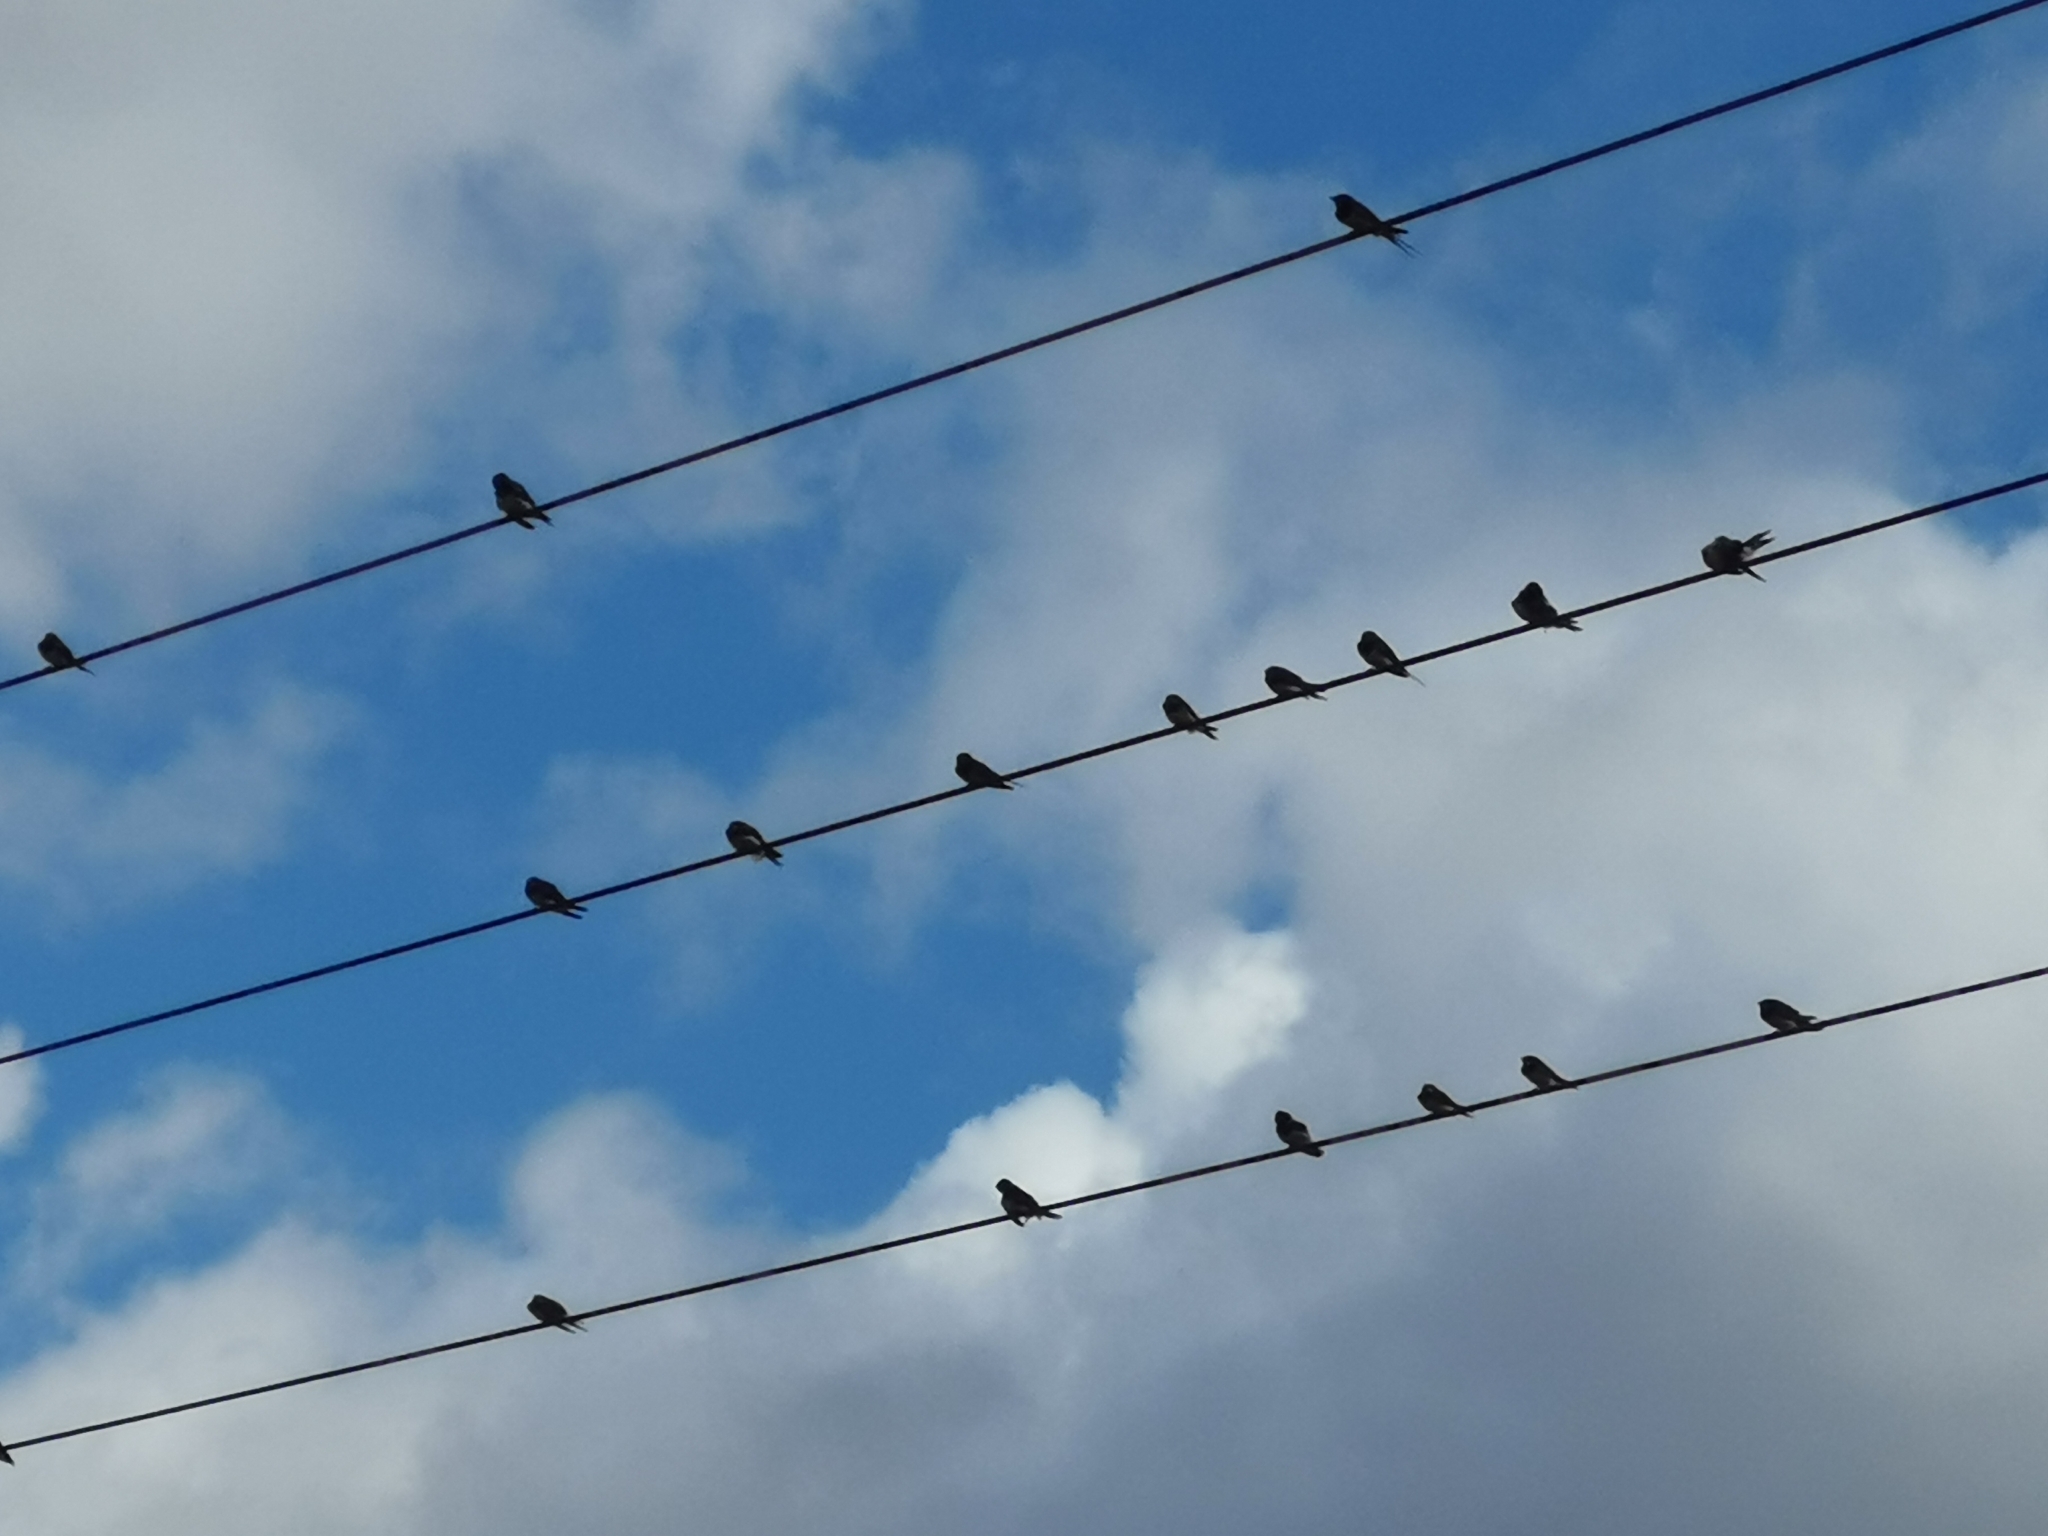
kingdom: Animalia
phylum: Chordata
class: Aves
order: Passeriformes
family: Hirundinidae
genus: Hirundo
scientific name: Hirundo rustica
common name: Barn swallow
